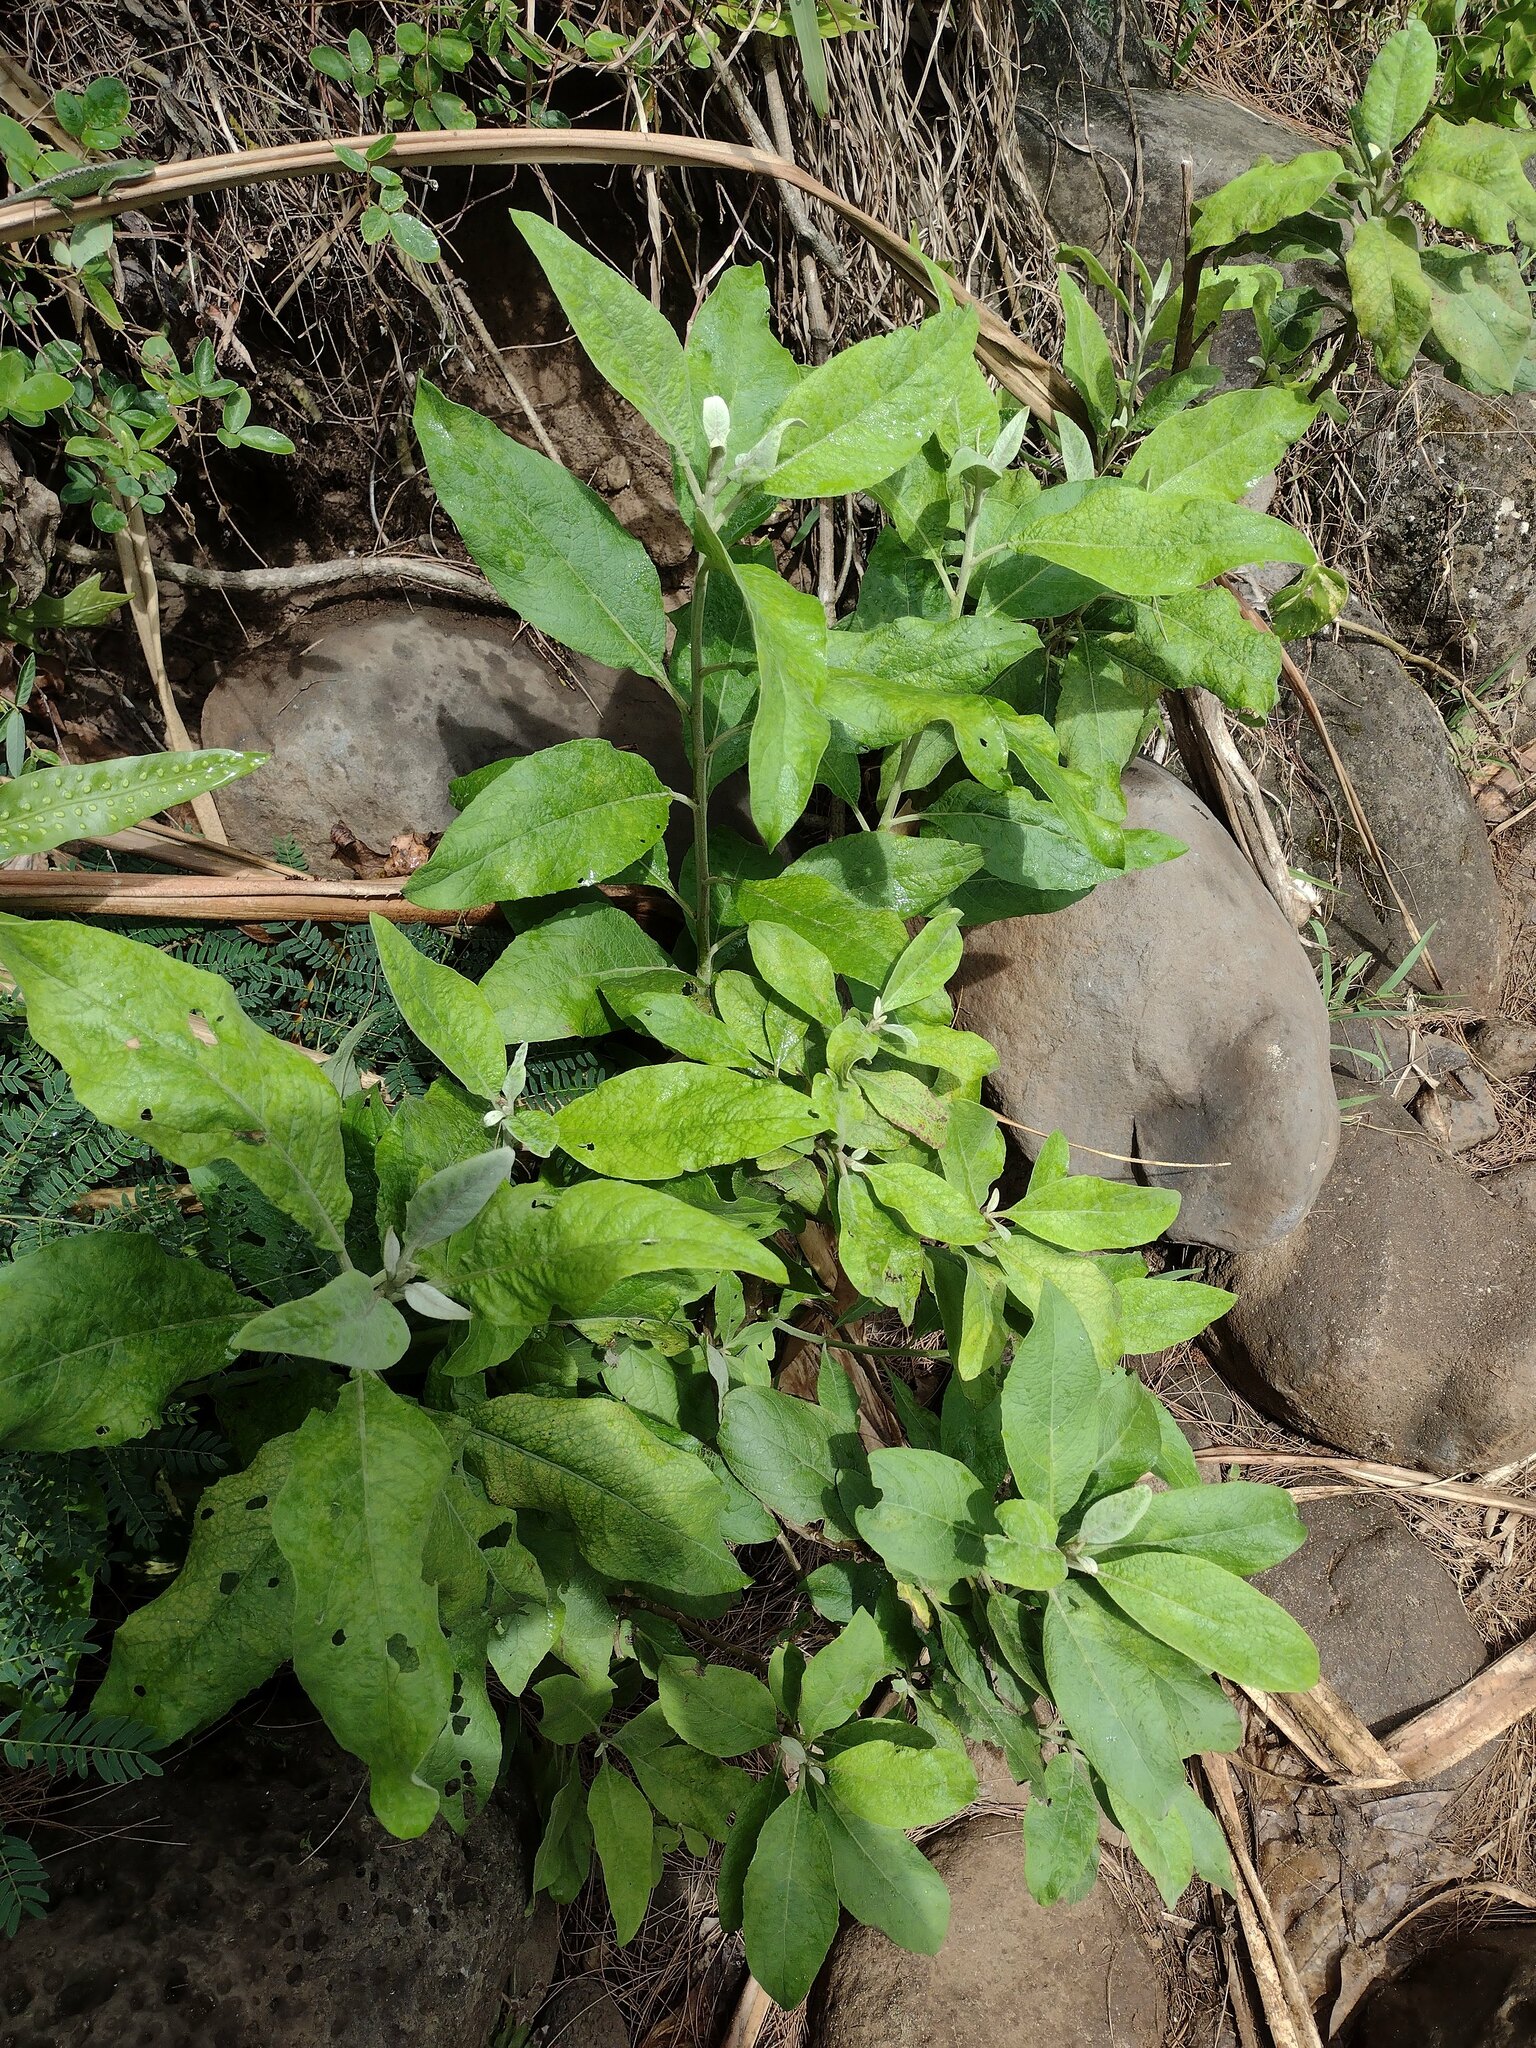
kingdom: Plantae
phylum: Tracheophyta
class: Magnoliopsida
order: Asterales
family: Asteraceae
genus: Pluchea
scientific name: Pluchea carolinensis
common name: Marsh fleabane
